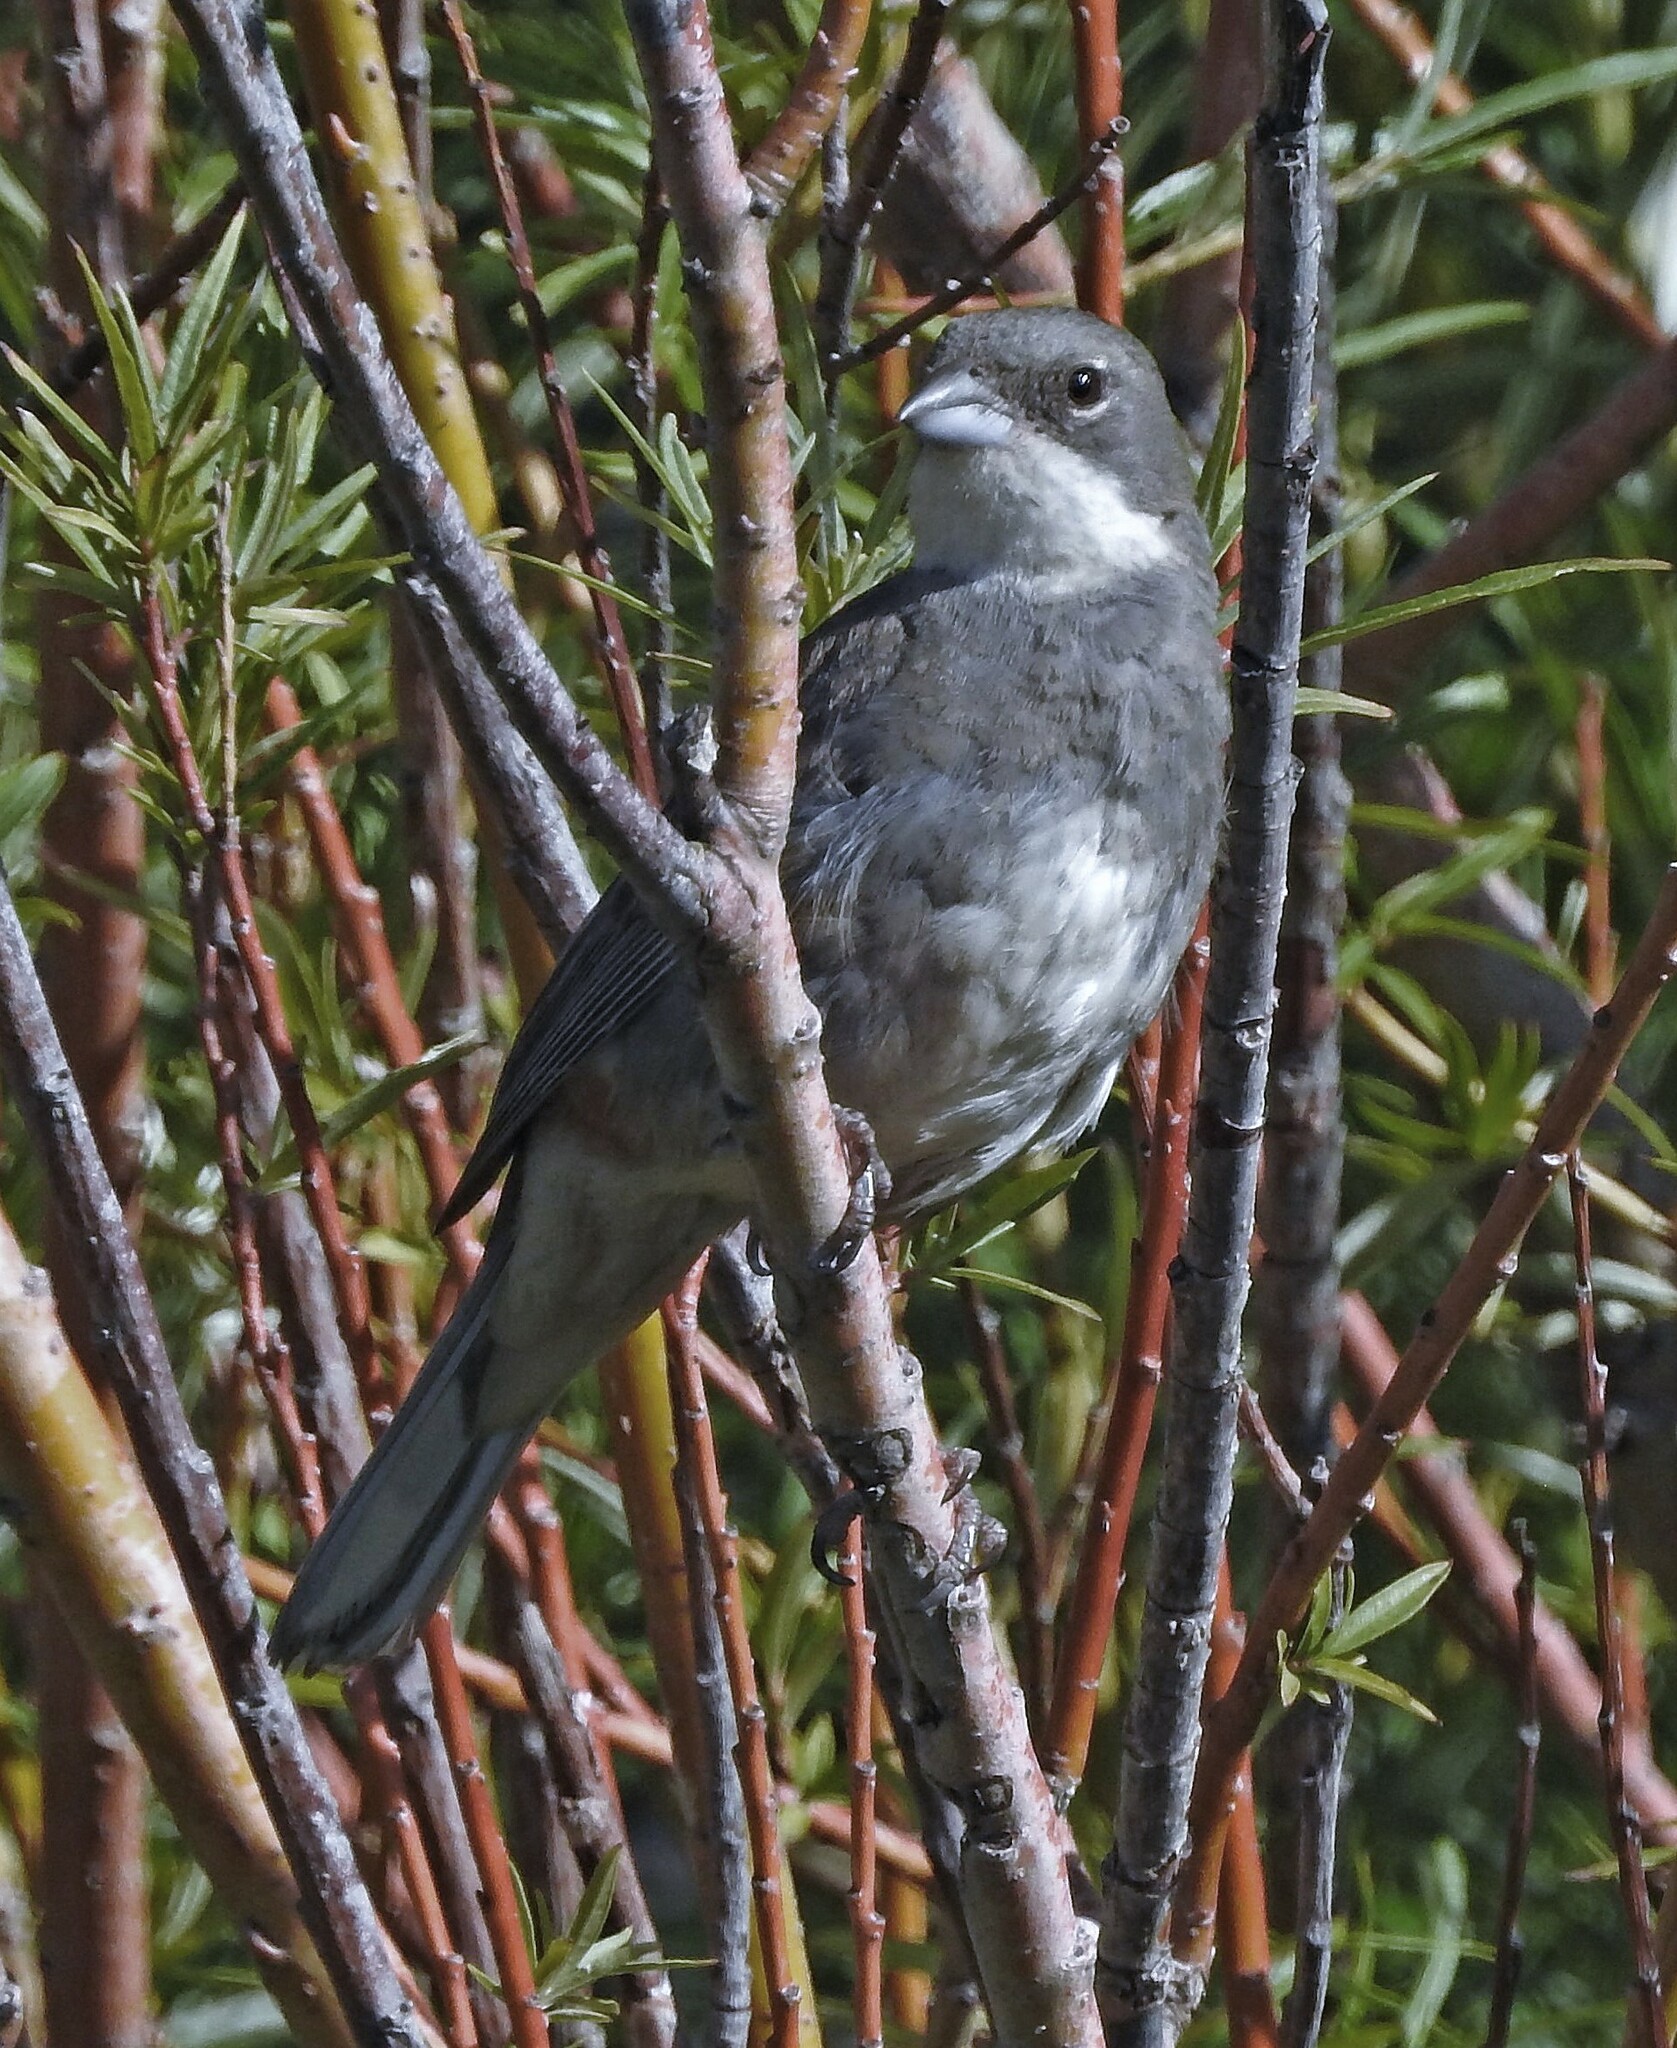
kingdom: Animalia
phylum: Chordata
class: Aves
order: Passeriformes
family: Thraupidae
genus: Diuca
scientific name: Diuca diuca
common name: Common diuca finch
